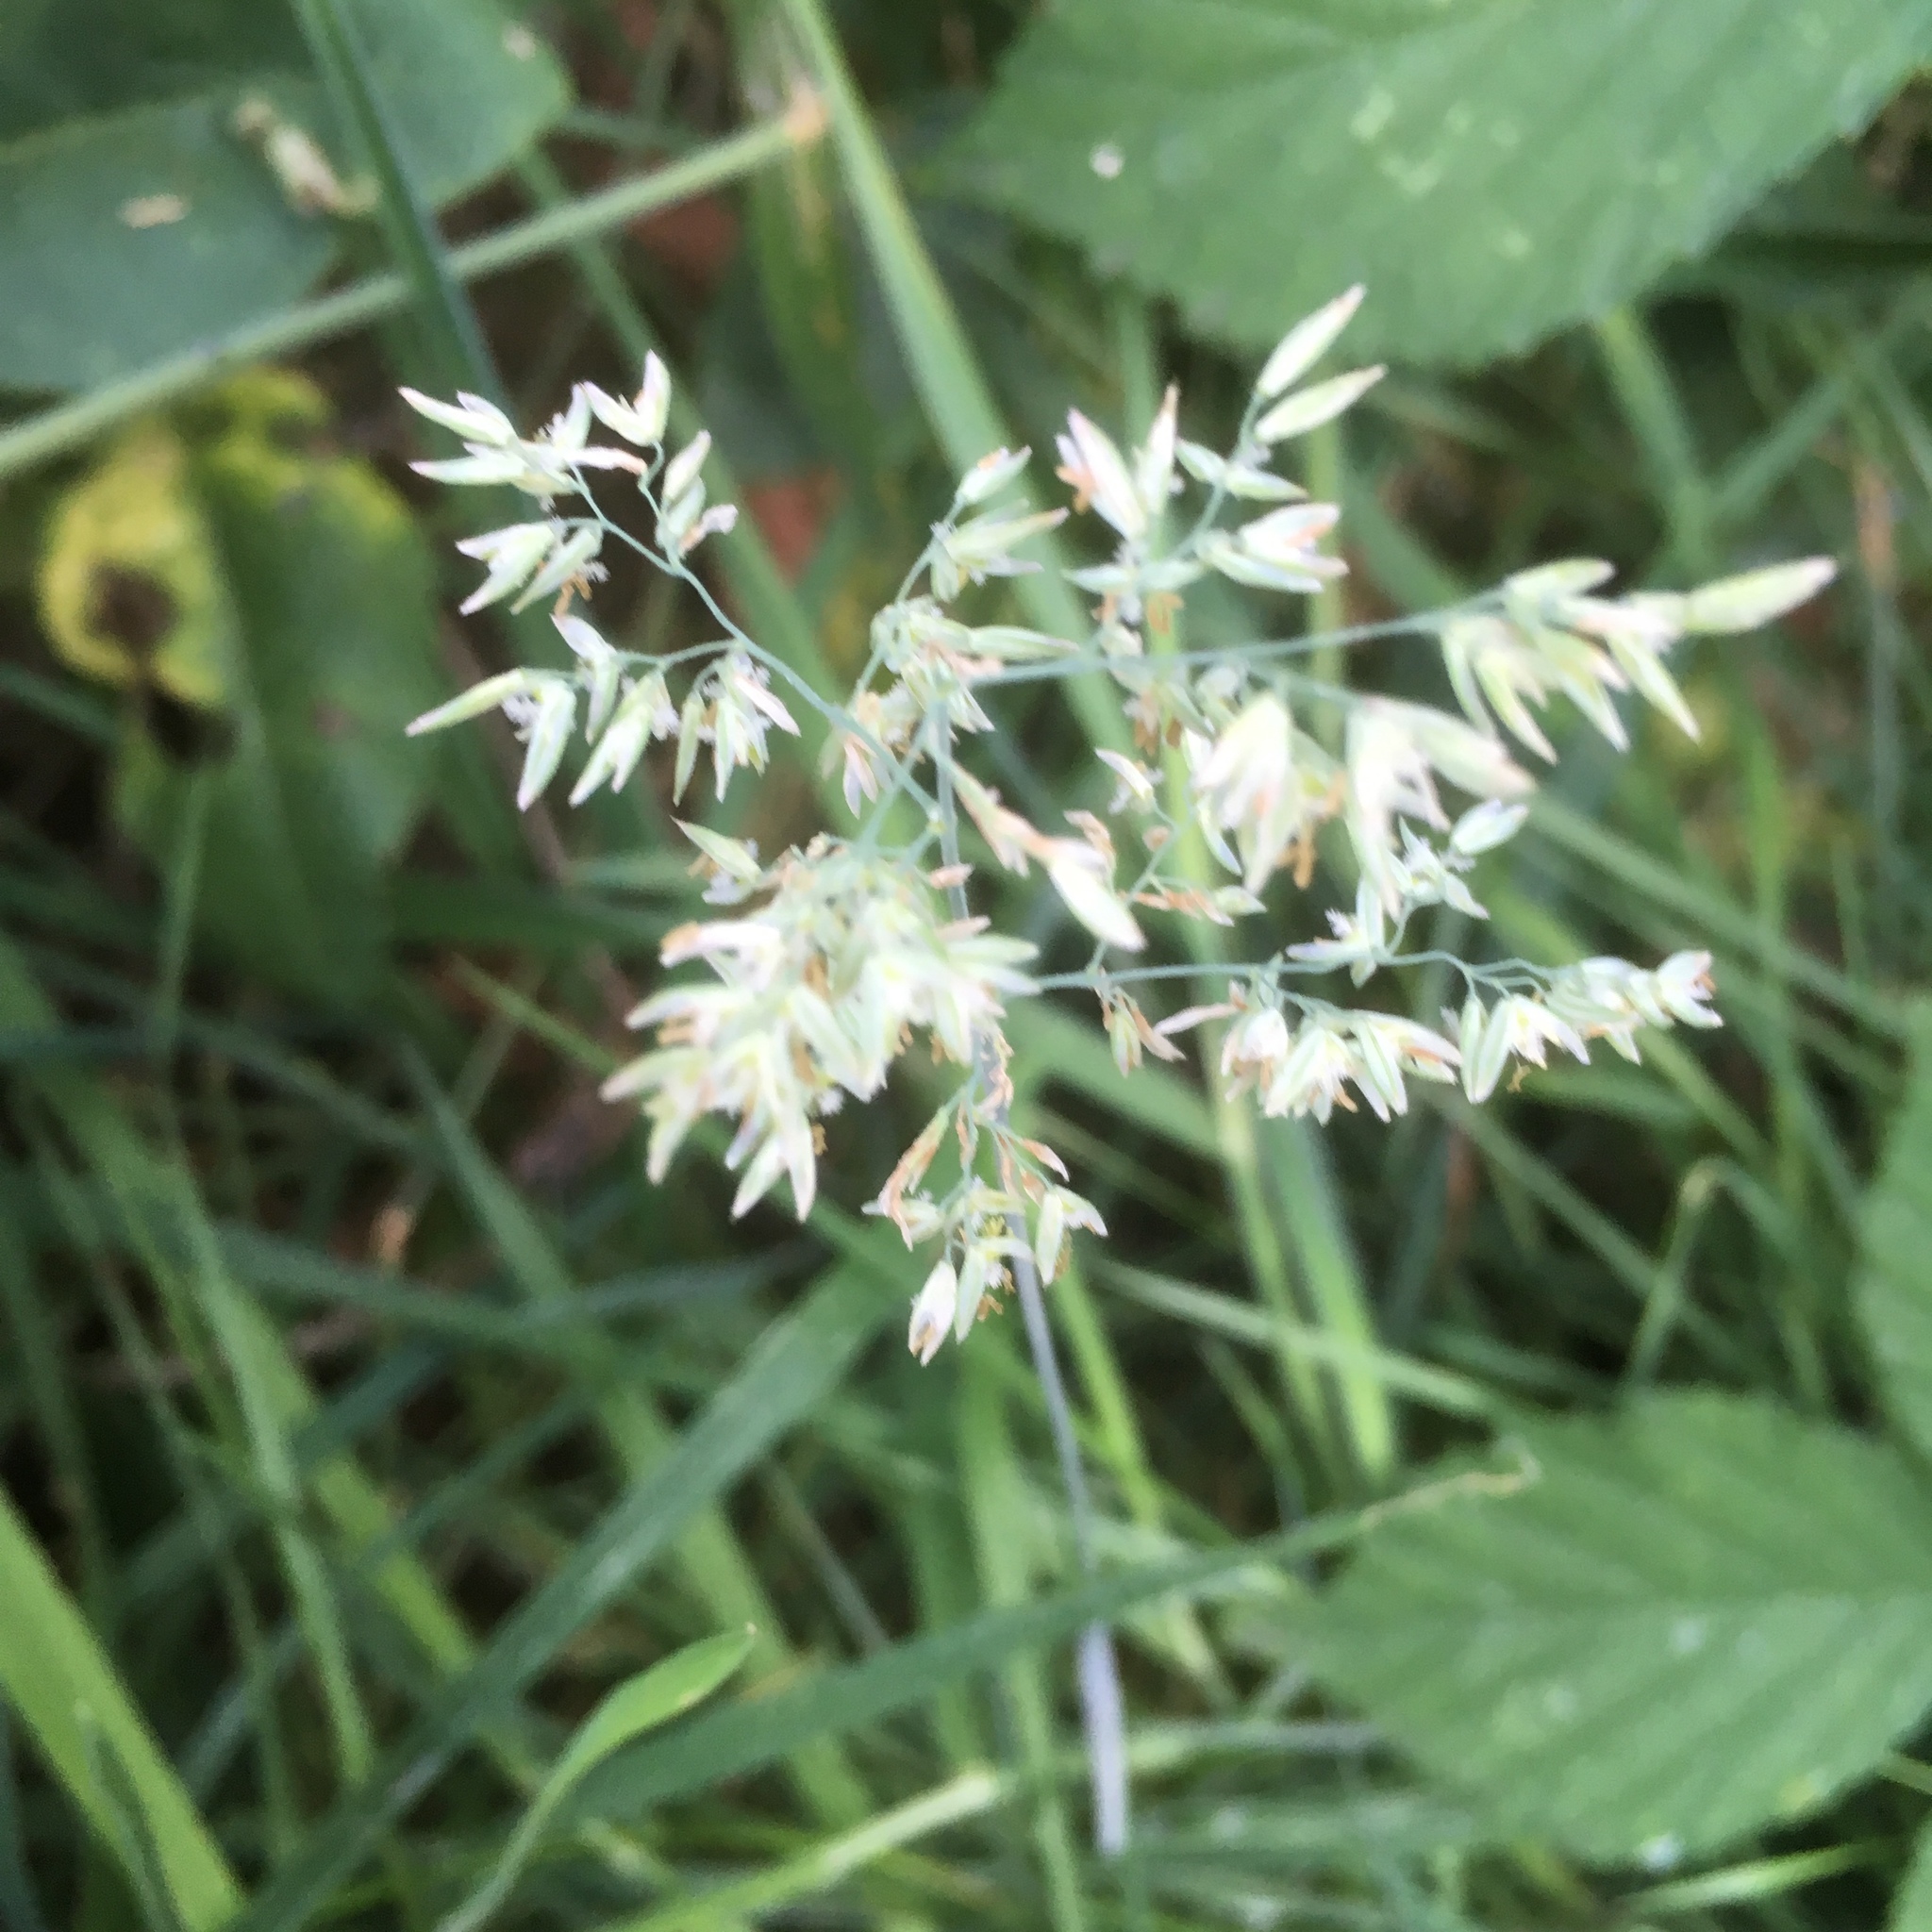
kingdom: Plantae
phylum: Tracheophyta
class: Liliopsida
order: Poales
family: Poaceae
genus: Holcus
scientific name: Holcus lanatus
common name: Yorkshire-fog
